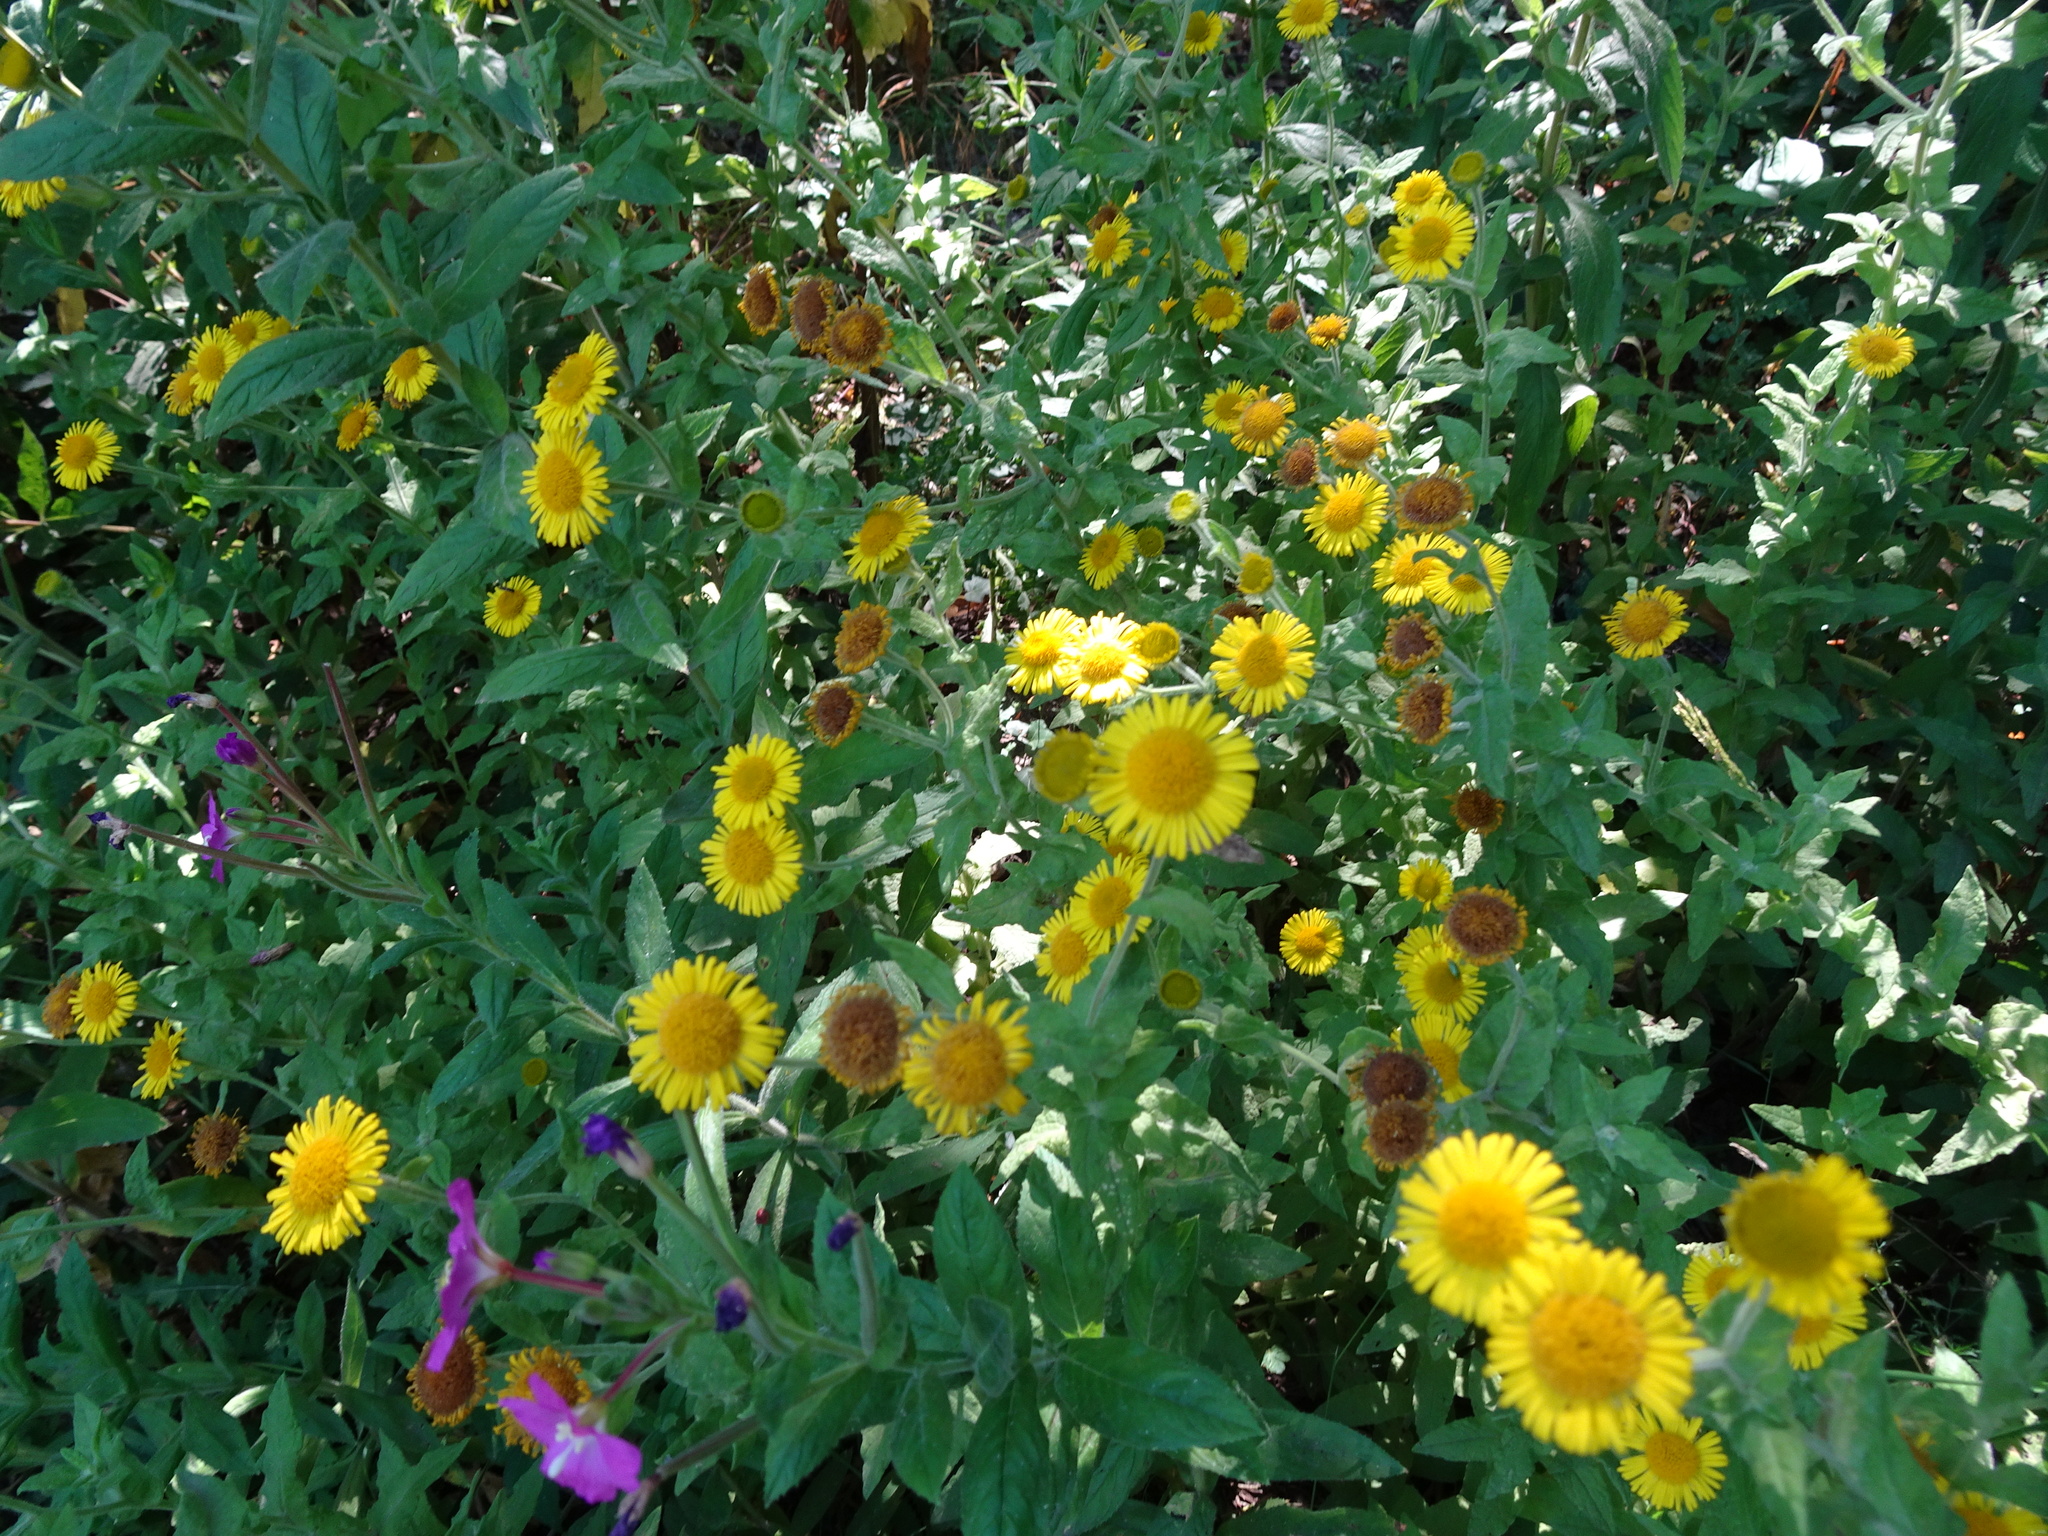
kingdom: Plantae
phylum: Tracheophyta
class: Magnoliopsida
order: Asterales
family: Asteraceae
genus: Pulicaria
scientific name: Pulicaria dysenterica
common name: Common fleabane
